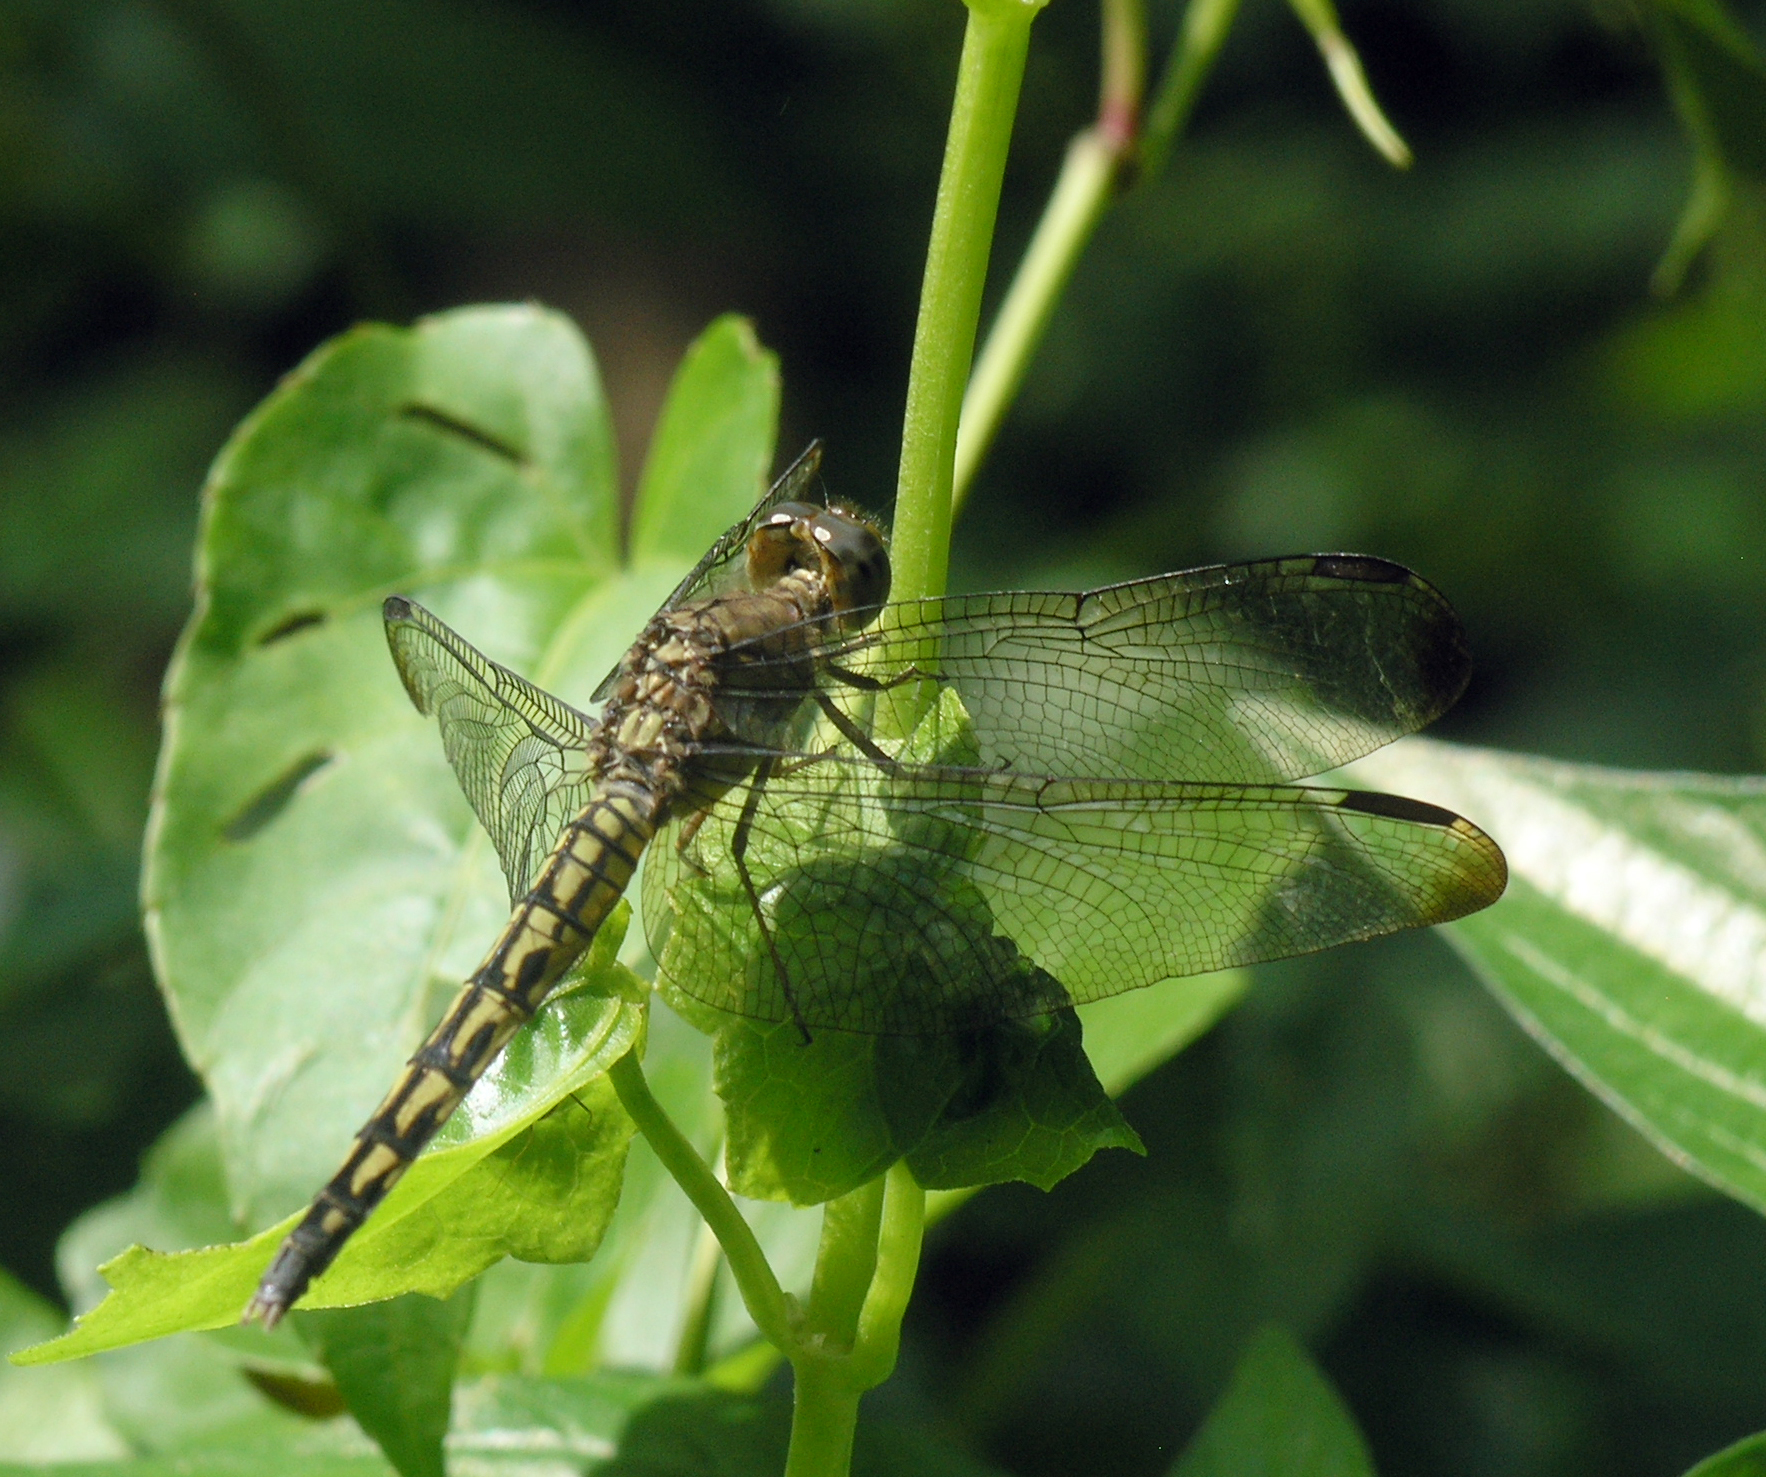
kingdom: Animalia
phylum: Arthropoda
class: Insecta
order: Odonata
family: Libellulidae
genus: Neurothemis
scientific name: Neurothemis terminata
